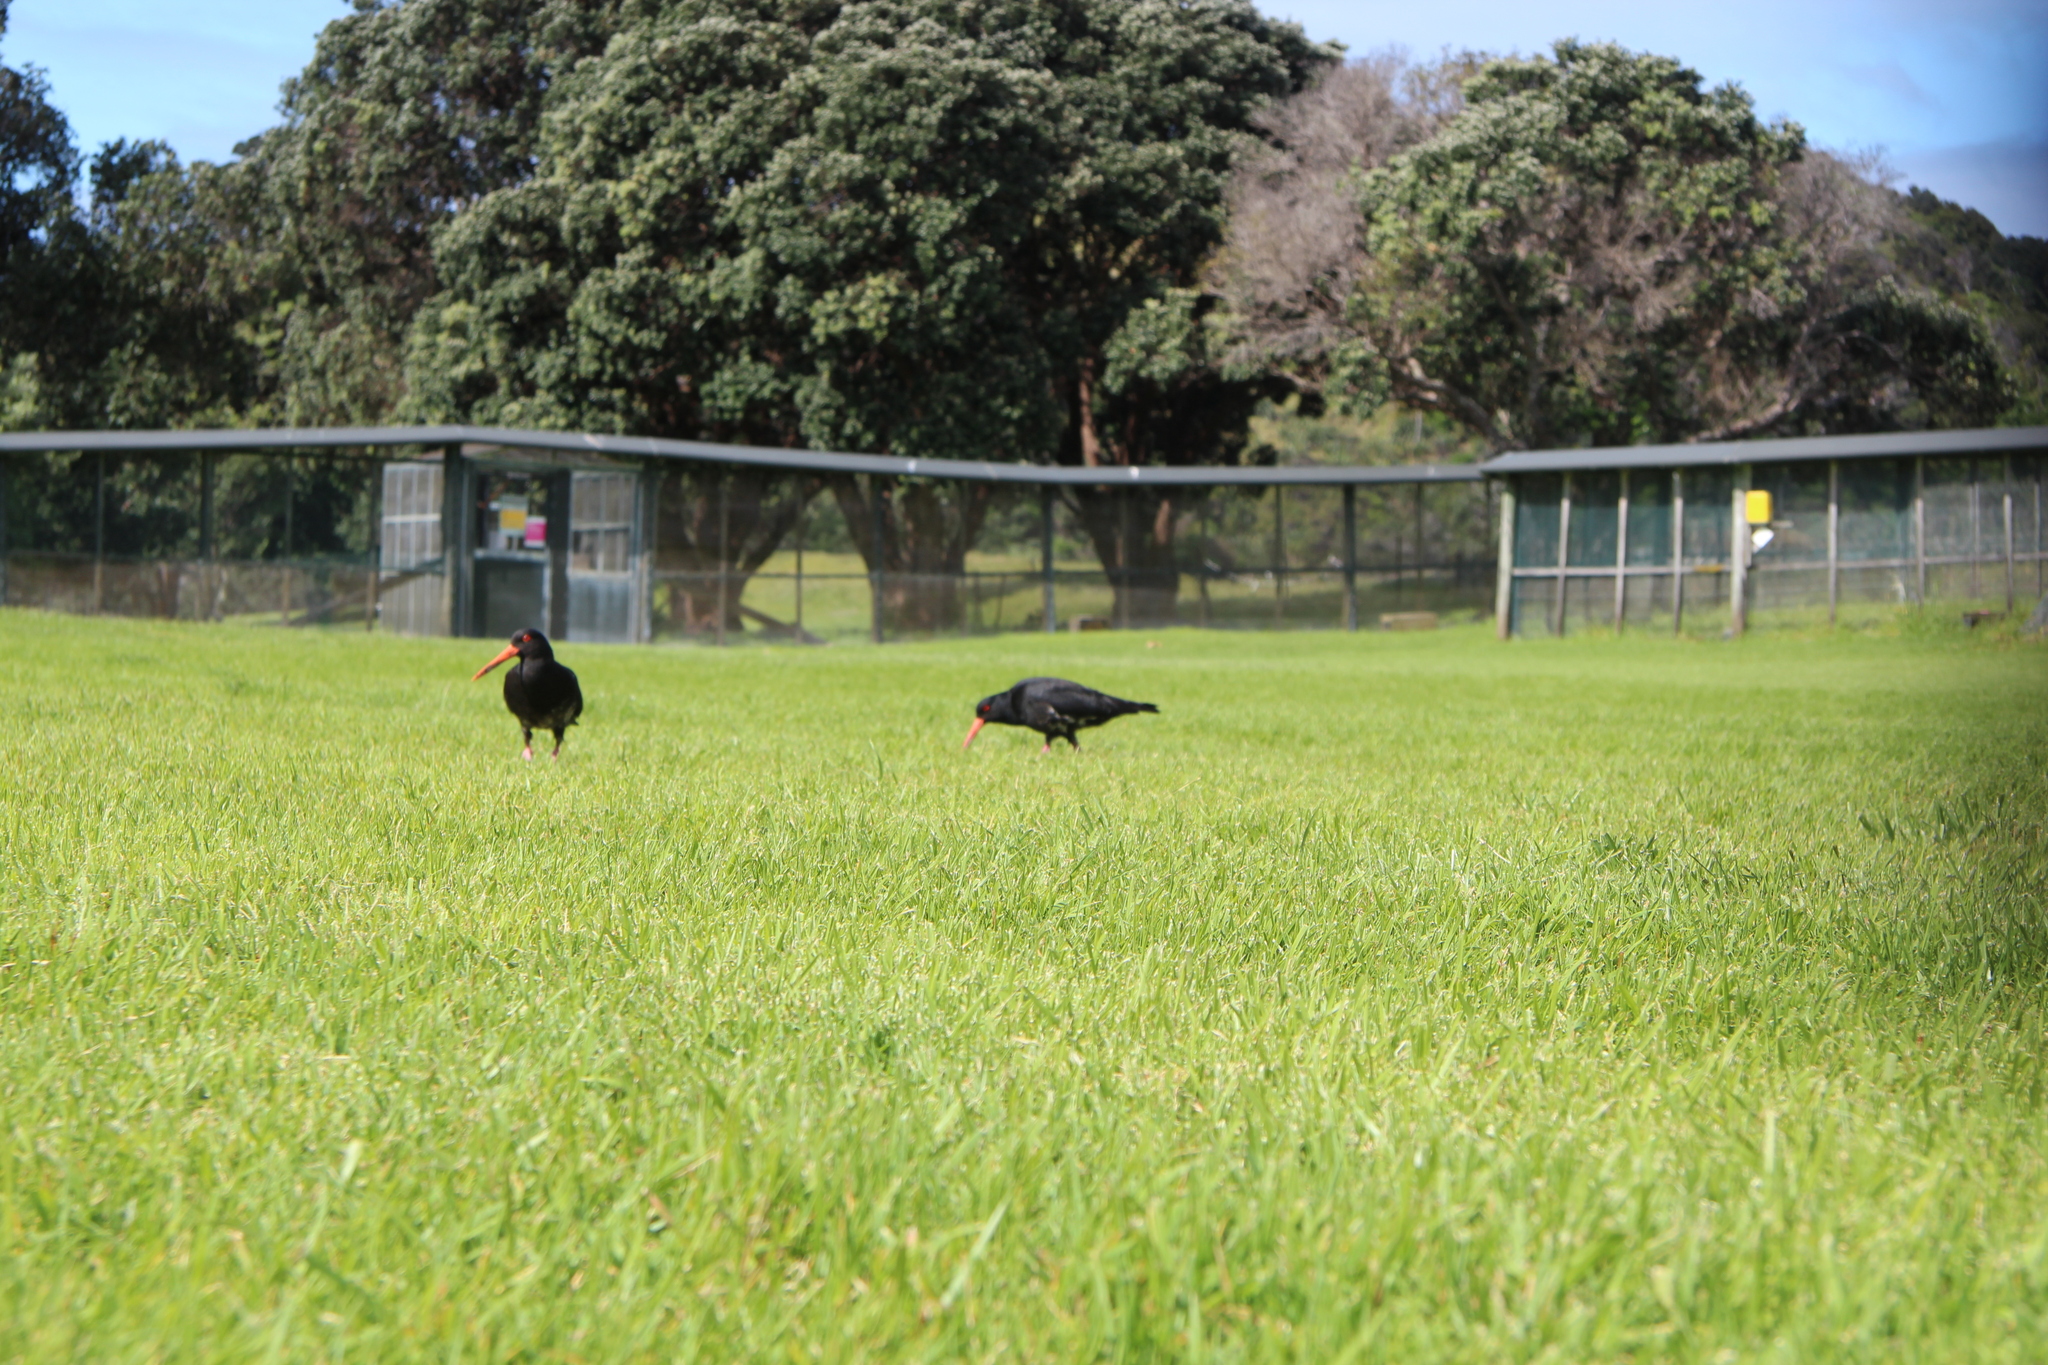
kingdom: Animalia
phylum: Chordata
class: Aves
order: Charadriiformes
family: Haematopodidae
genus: Haematopus
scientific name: Haematopus unicolor
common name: Variable oystercatcher
